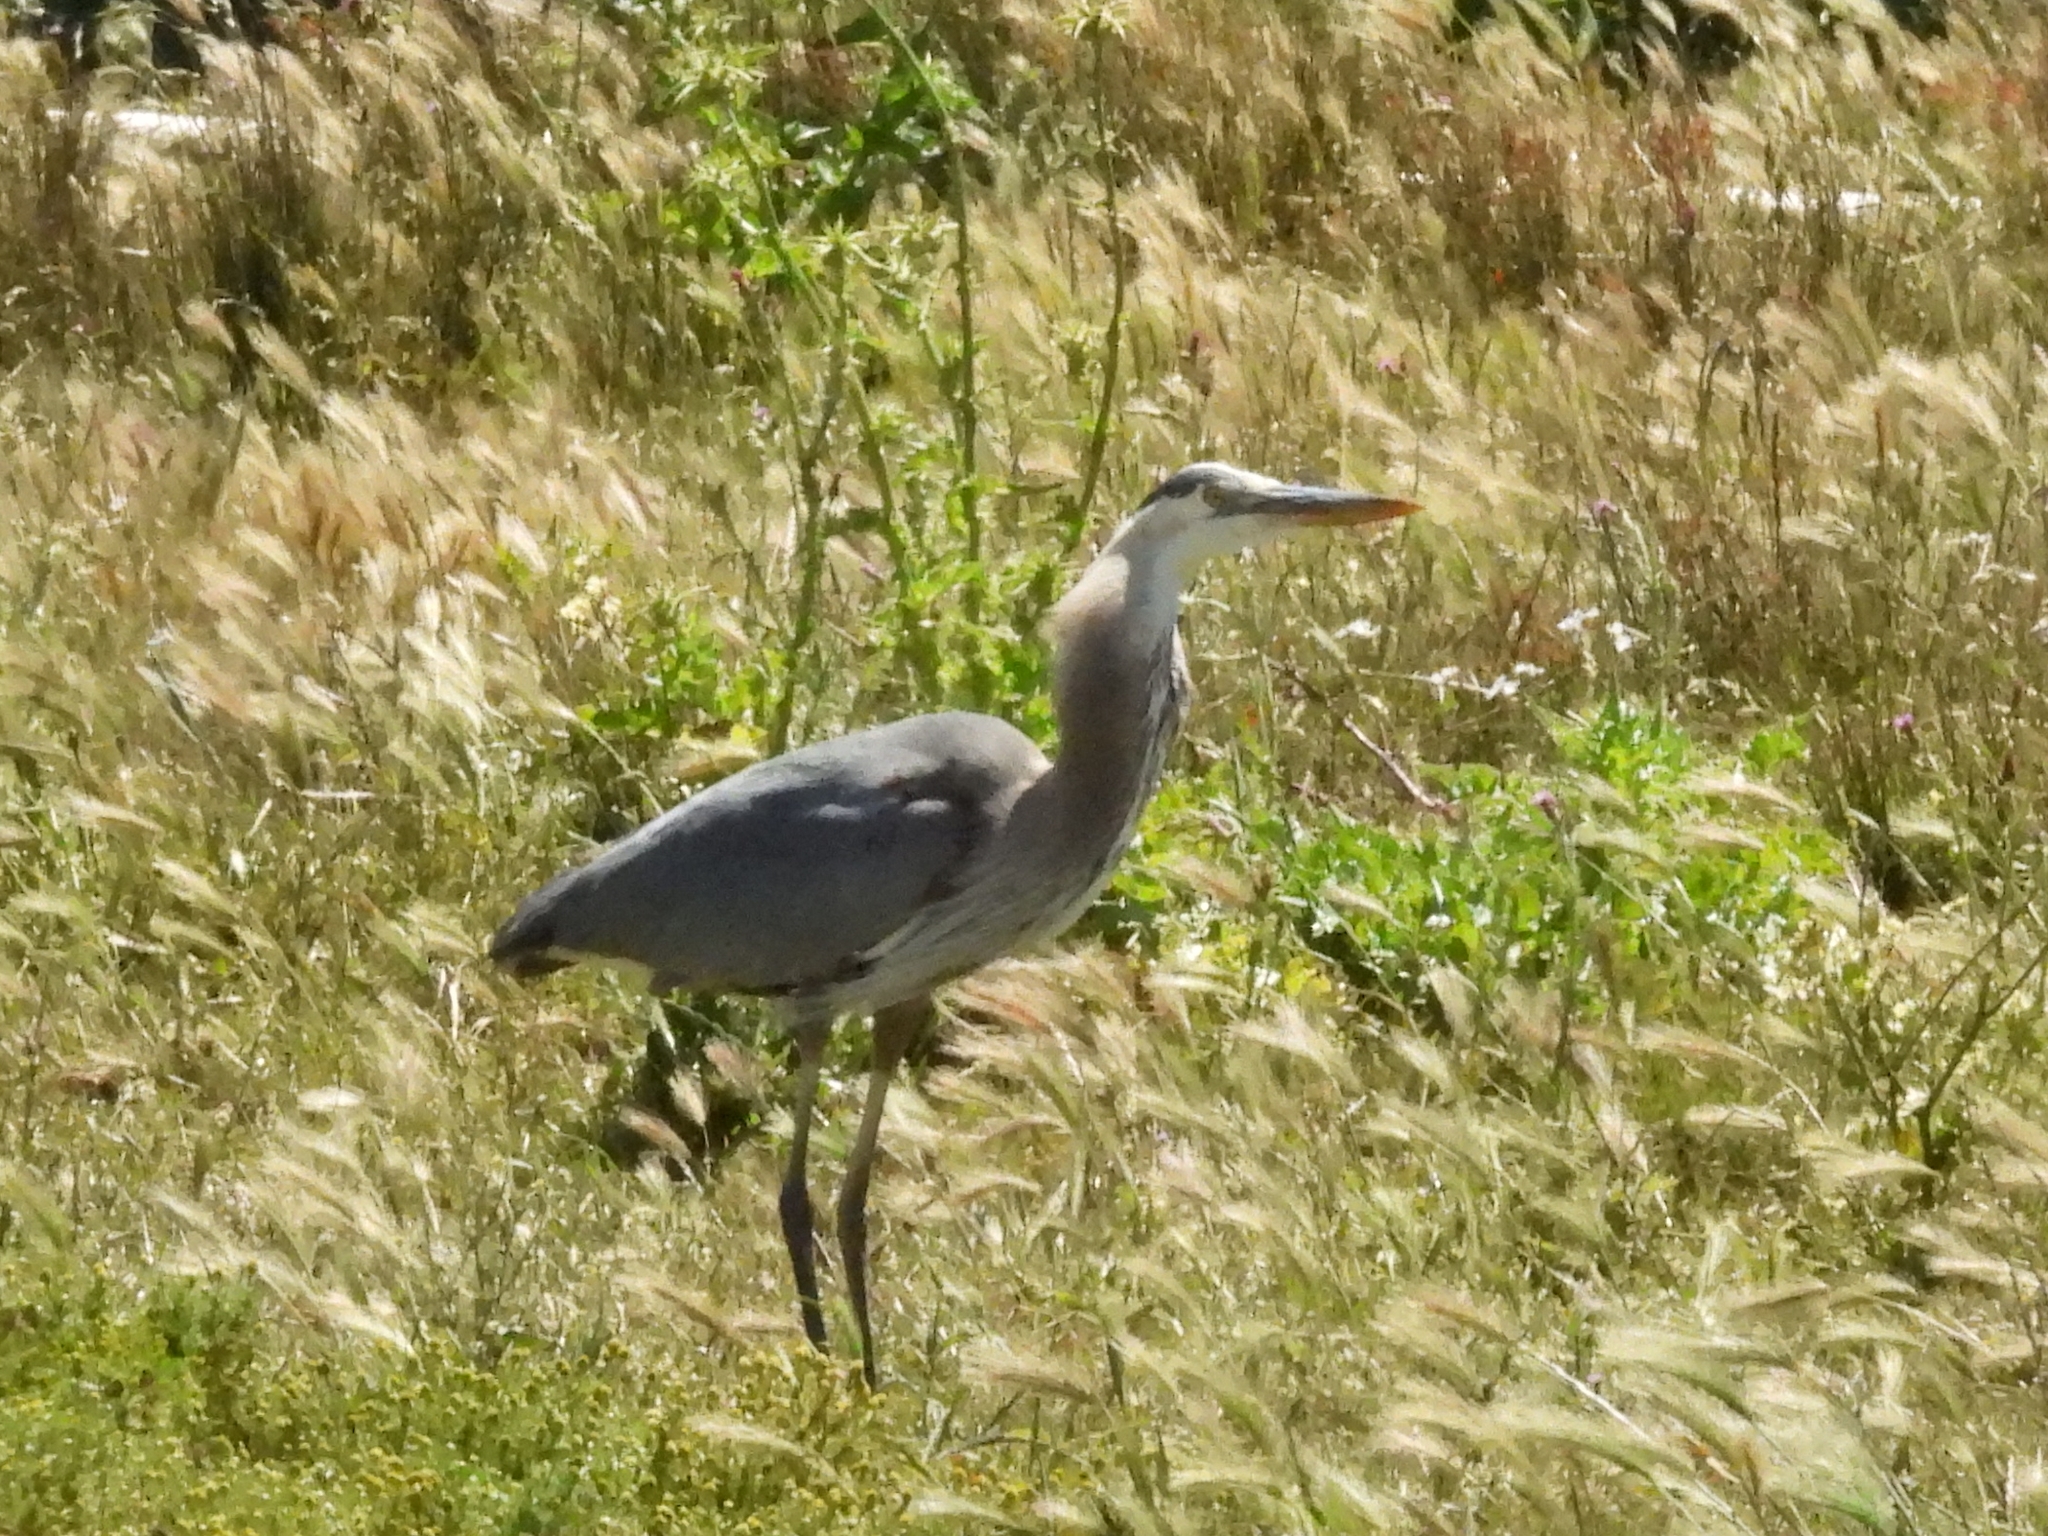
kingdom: Animalia
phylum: Chordata
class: Aves
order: Pelecaniformes
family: Ardeidae
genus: Ardea
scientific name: Ardea herodias
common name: Great blue heron
